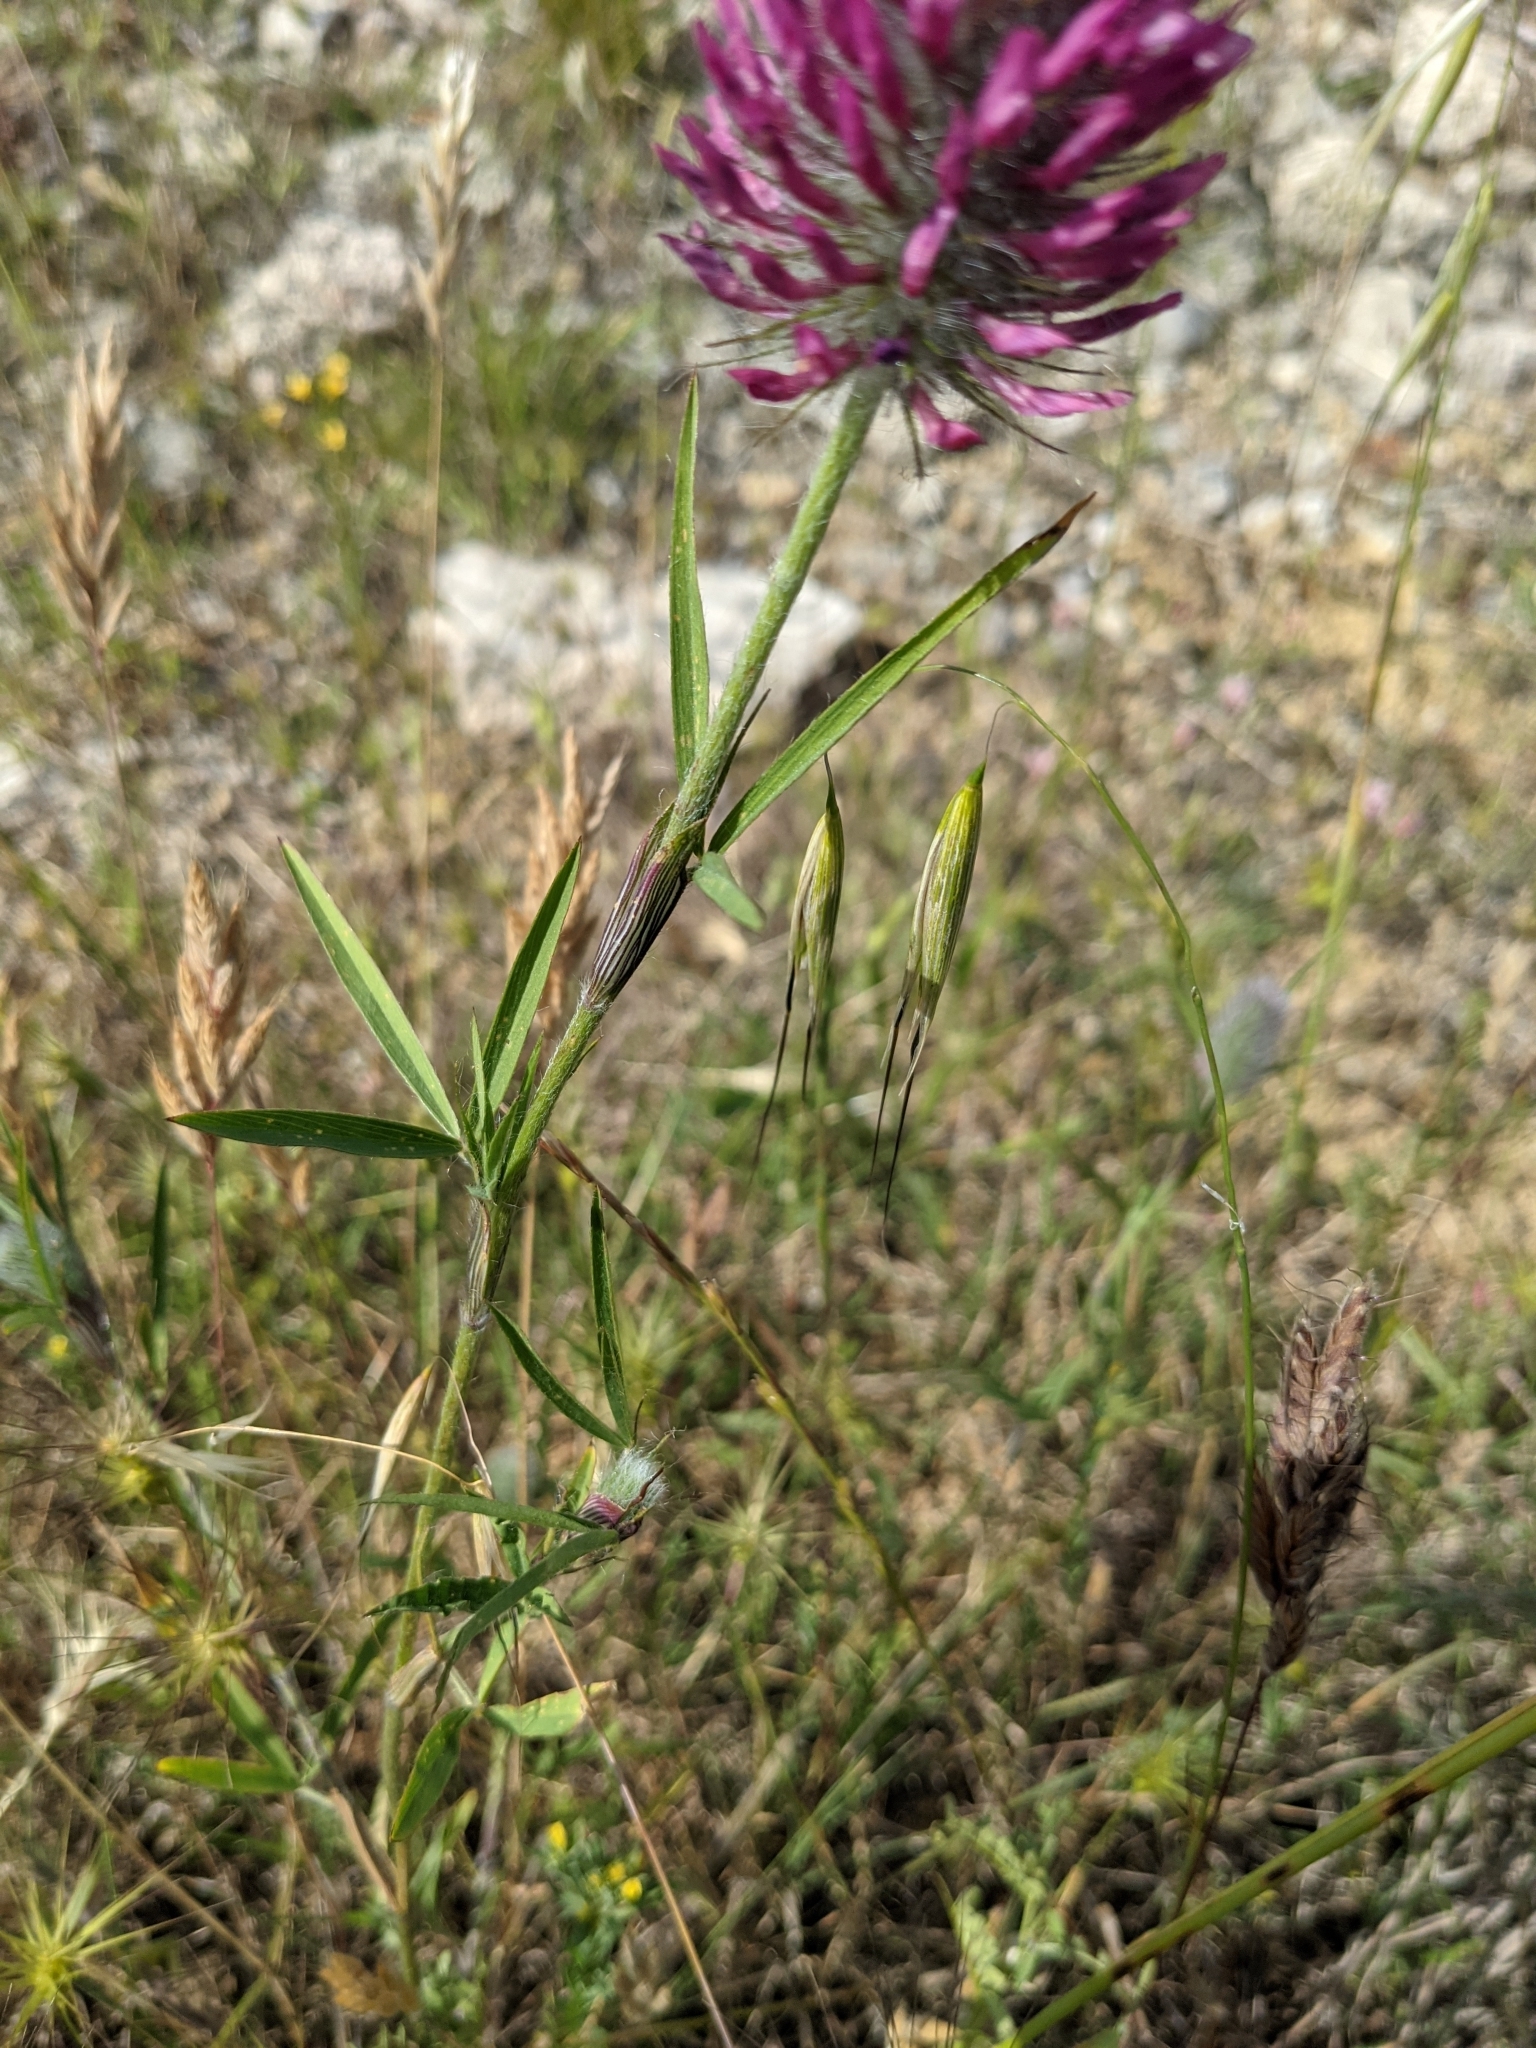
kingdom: Plantae
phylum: Tracheophyta
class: Magnoliopsida
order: Fabales
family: Fabaceae
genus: Trifolium
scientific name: Trifolium purpureum
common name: Purple clover
